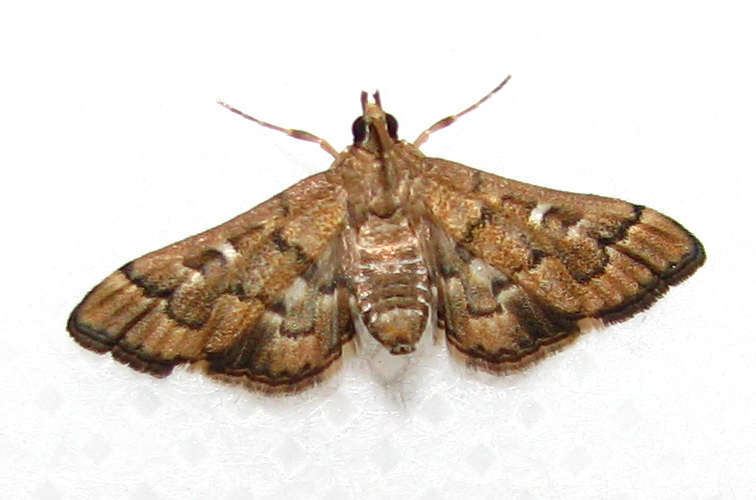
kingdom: Animalia
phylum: Arthropoda
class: Insecta
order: Lepidoptera
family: Crambidae
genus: Nacoleia
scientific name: Nacoleia rhoeoalis
